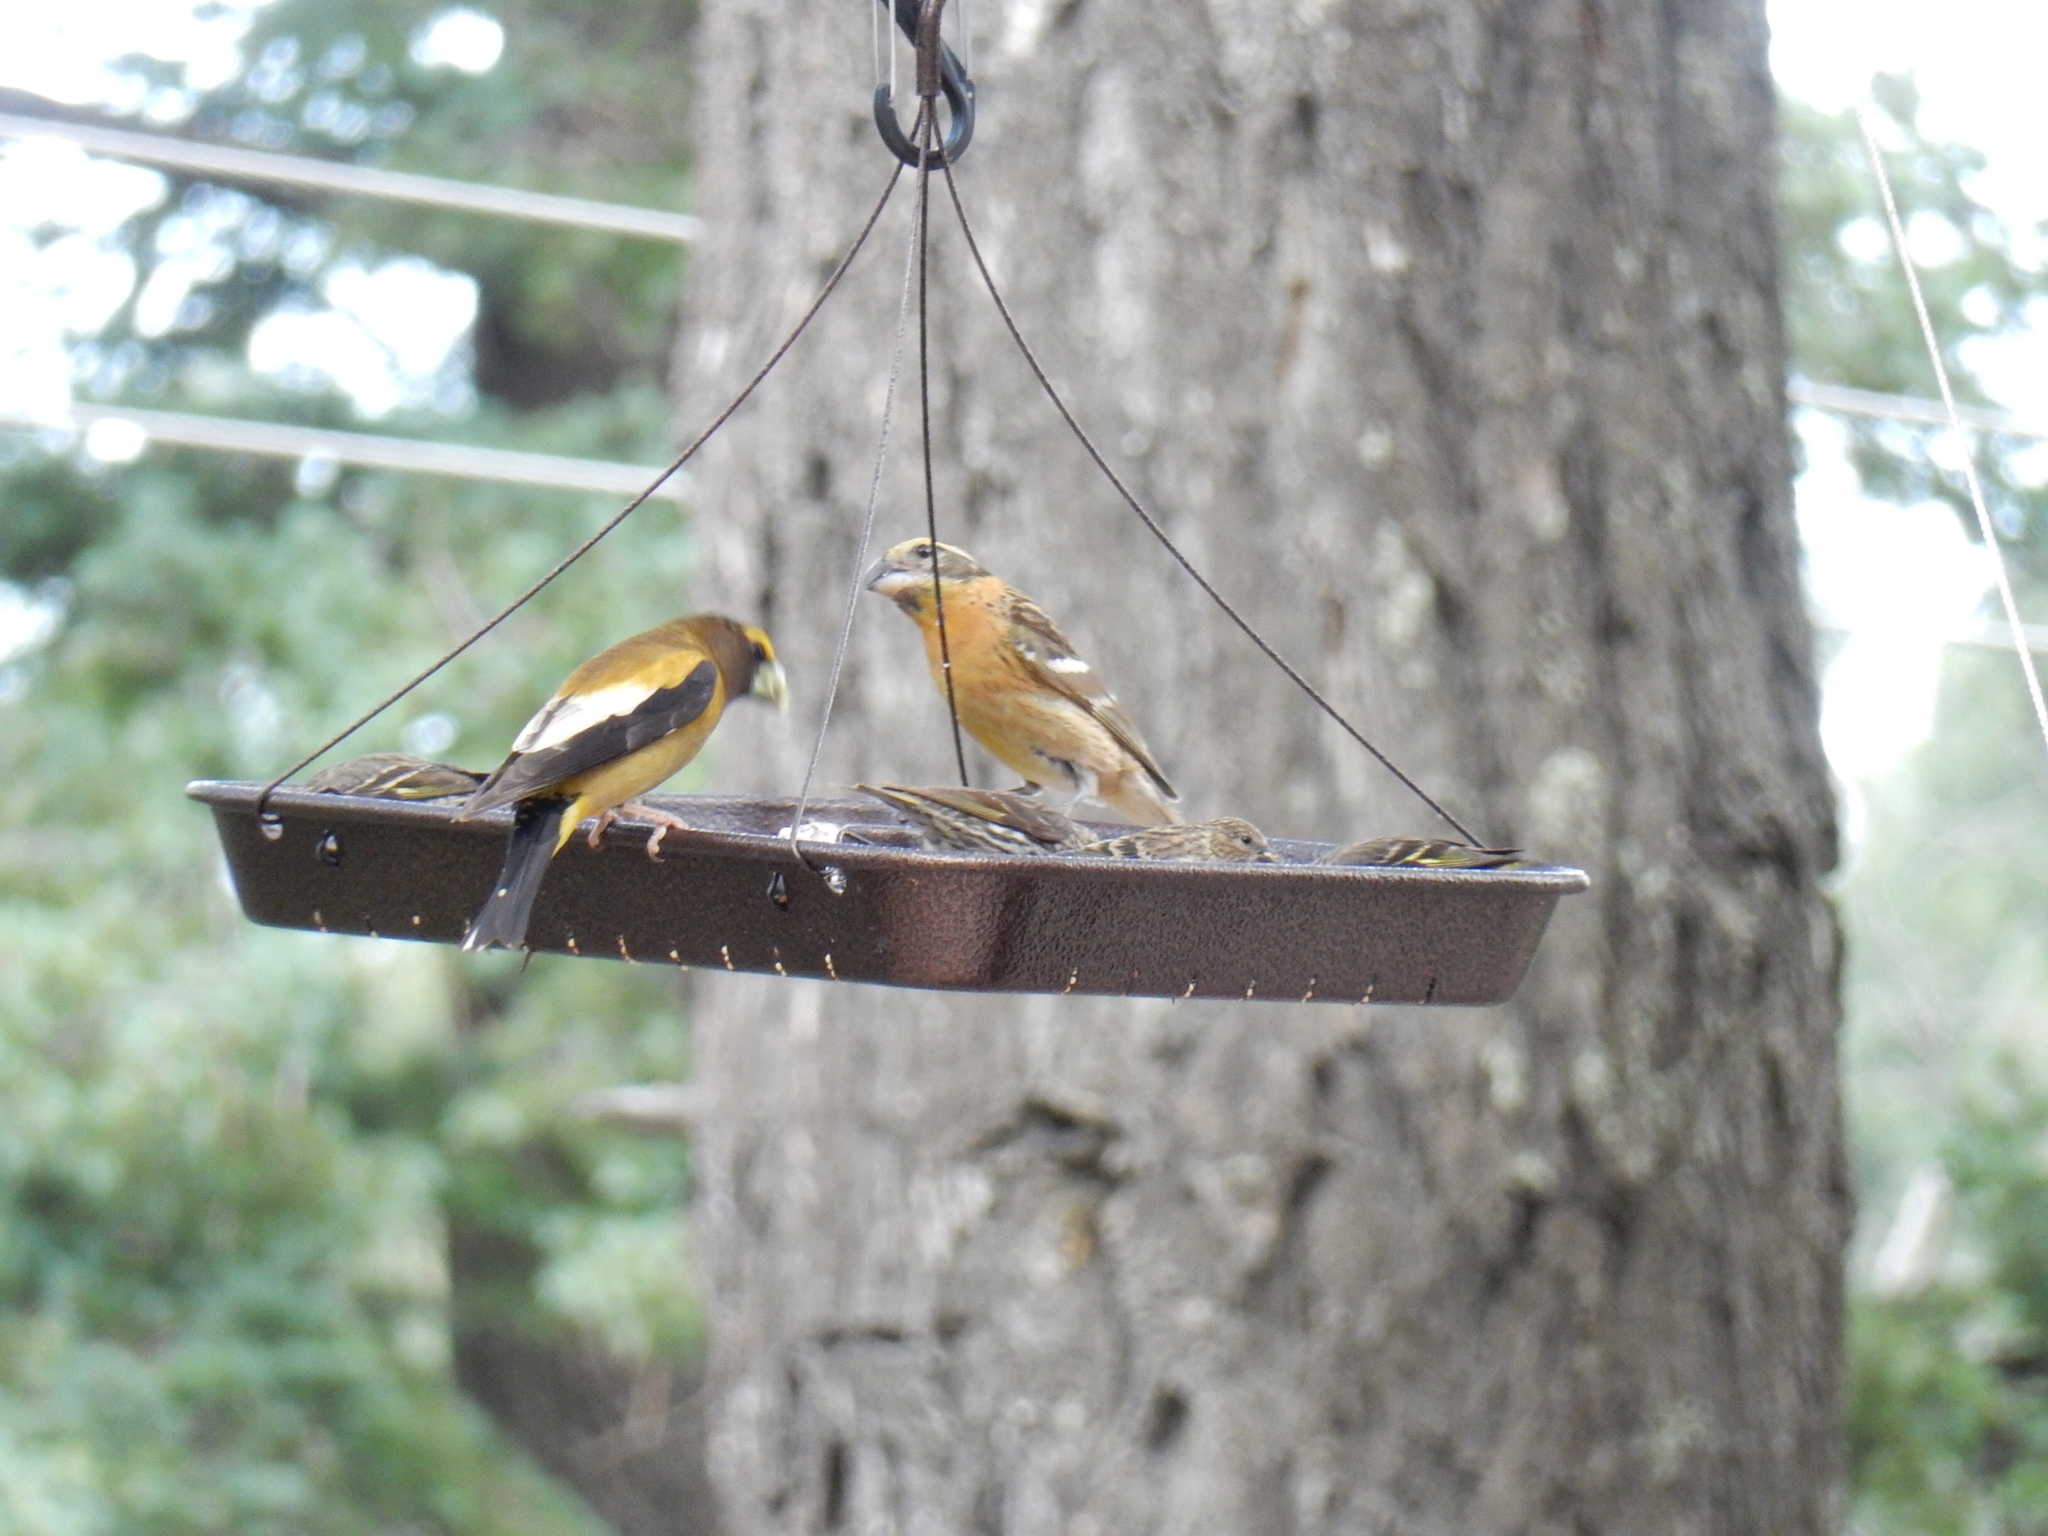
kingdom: Animalia
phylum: Chordata
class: Aves
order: Passeriformes
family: Cardinalidae
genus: Pheucticus
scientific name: Pheucticus melanocephalus
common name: Black-headed grosbeak
